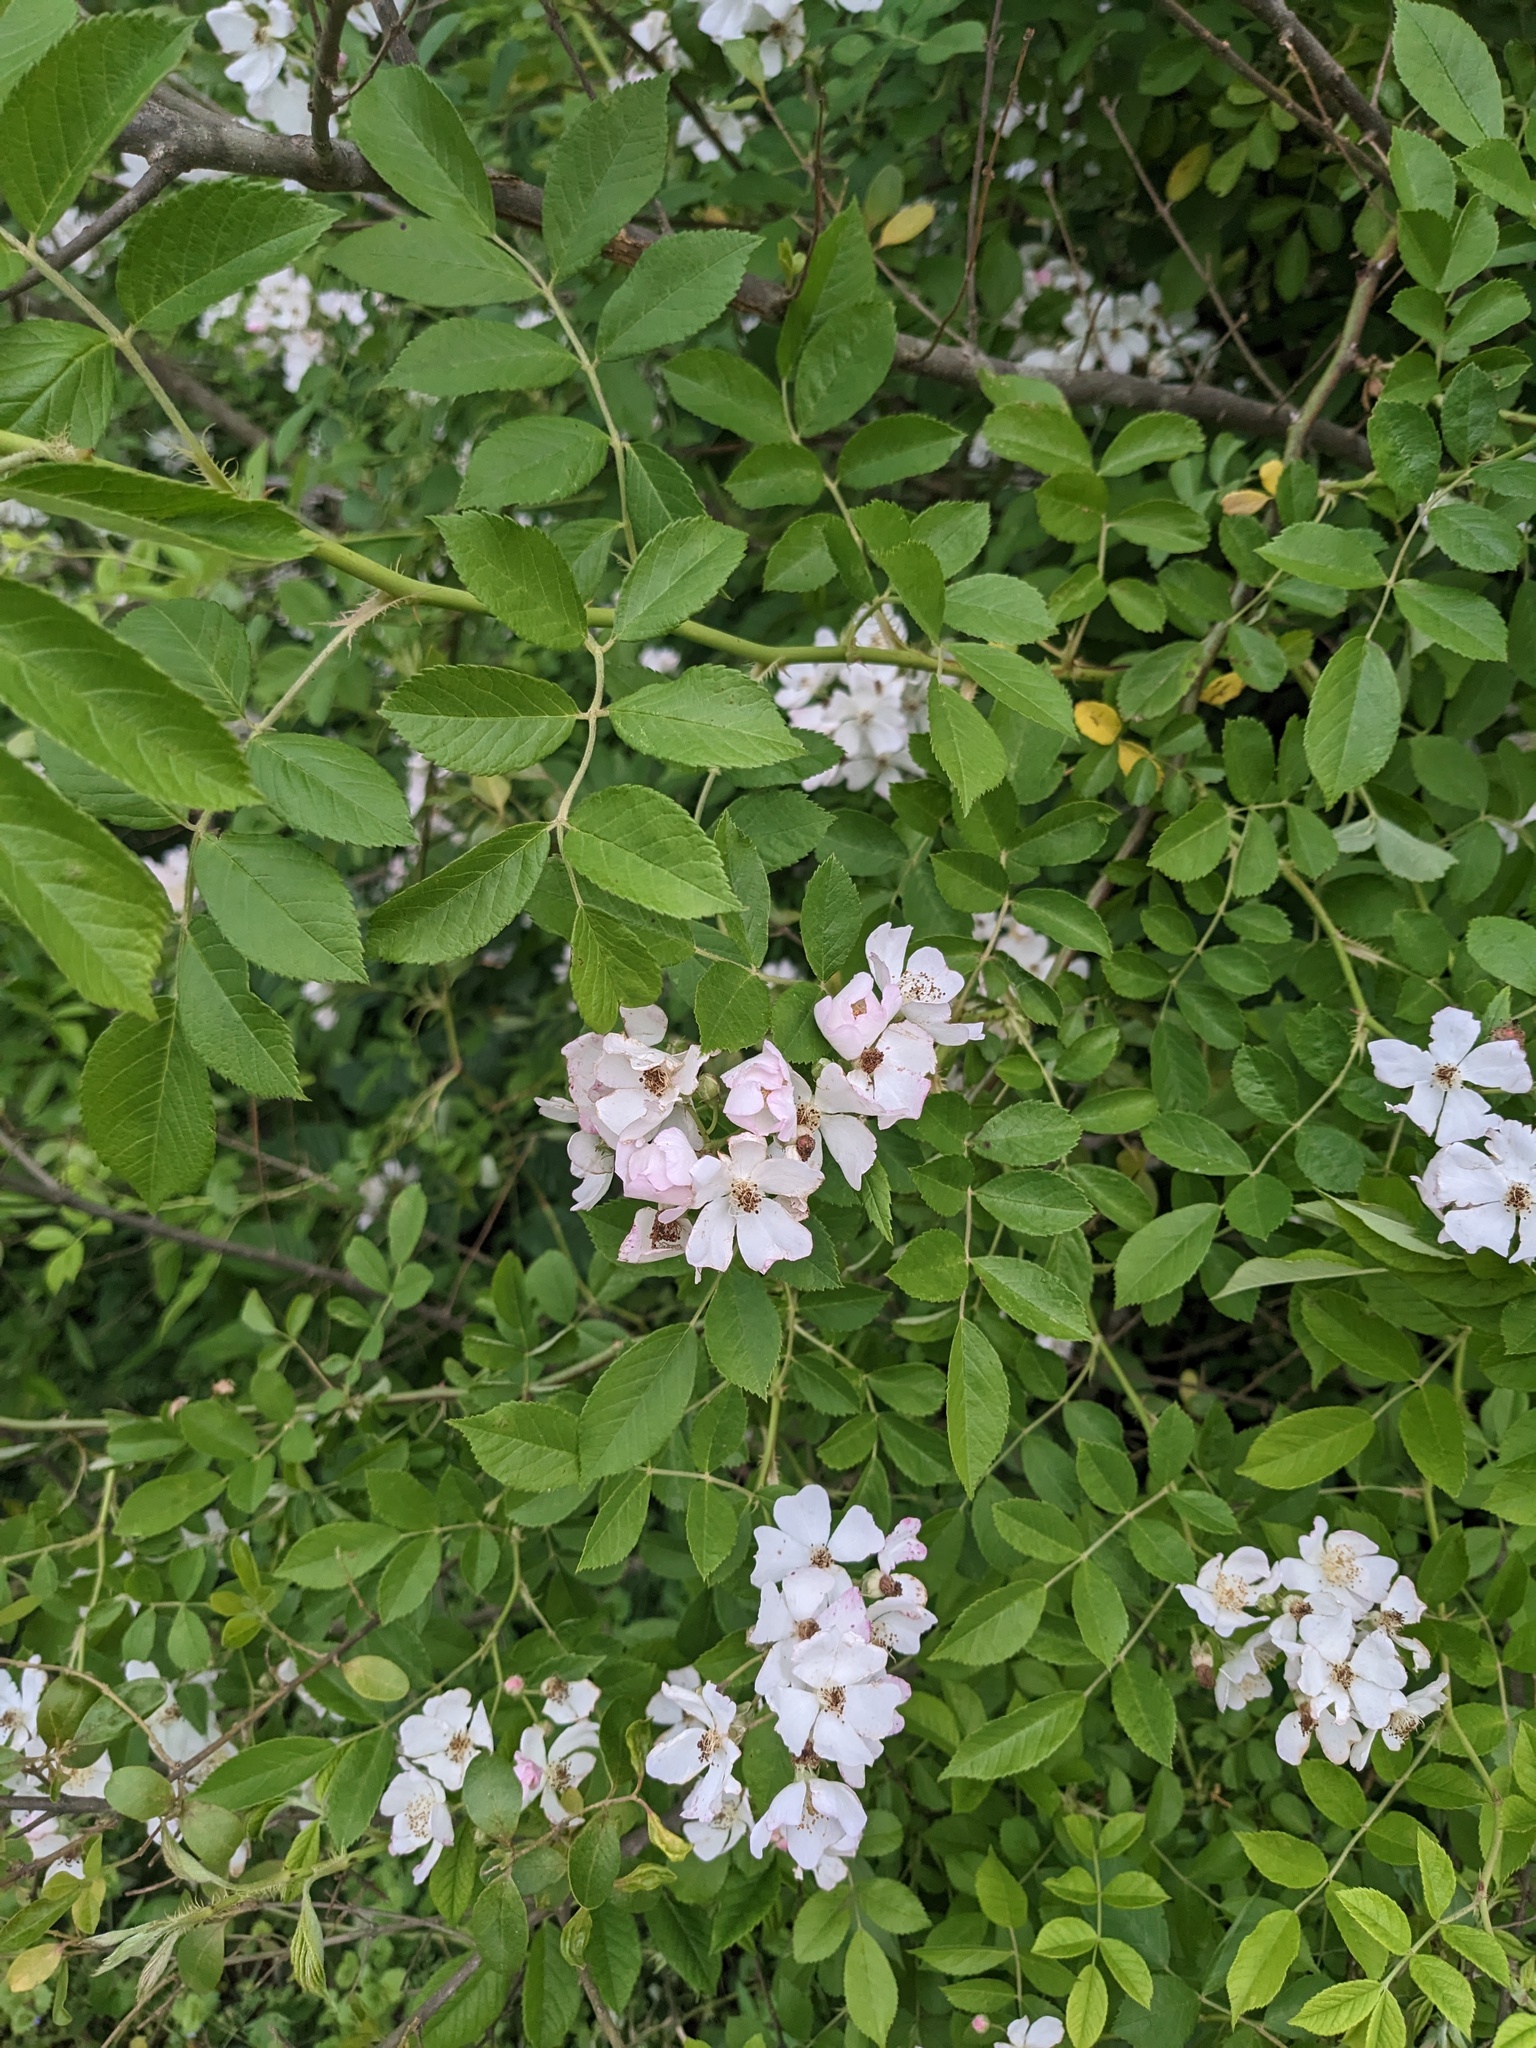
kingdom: Plantae
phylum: Tracheophyta
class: Magnoliopsida
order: Rosales
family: Rosaceae
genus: Rosa
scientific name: Rosa multiflora
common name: Multiflora rose
